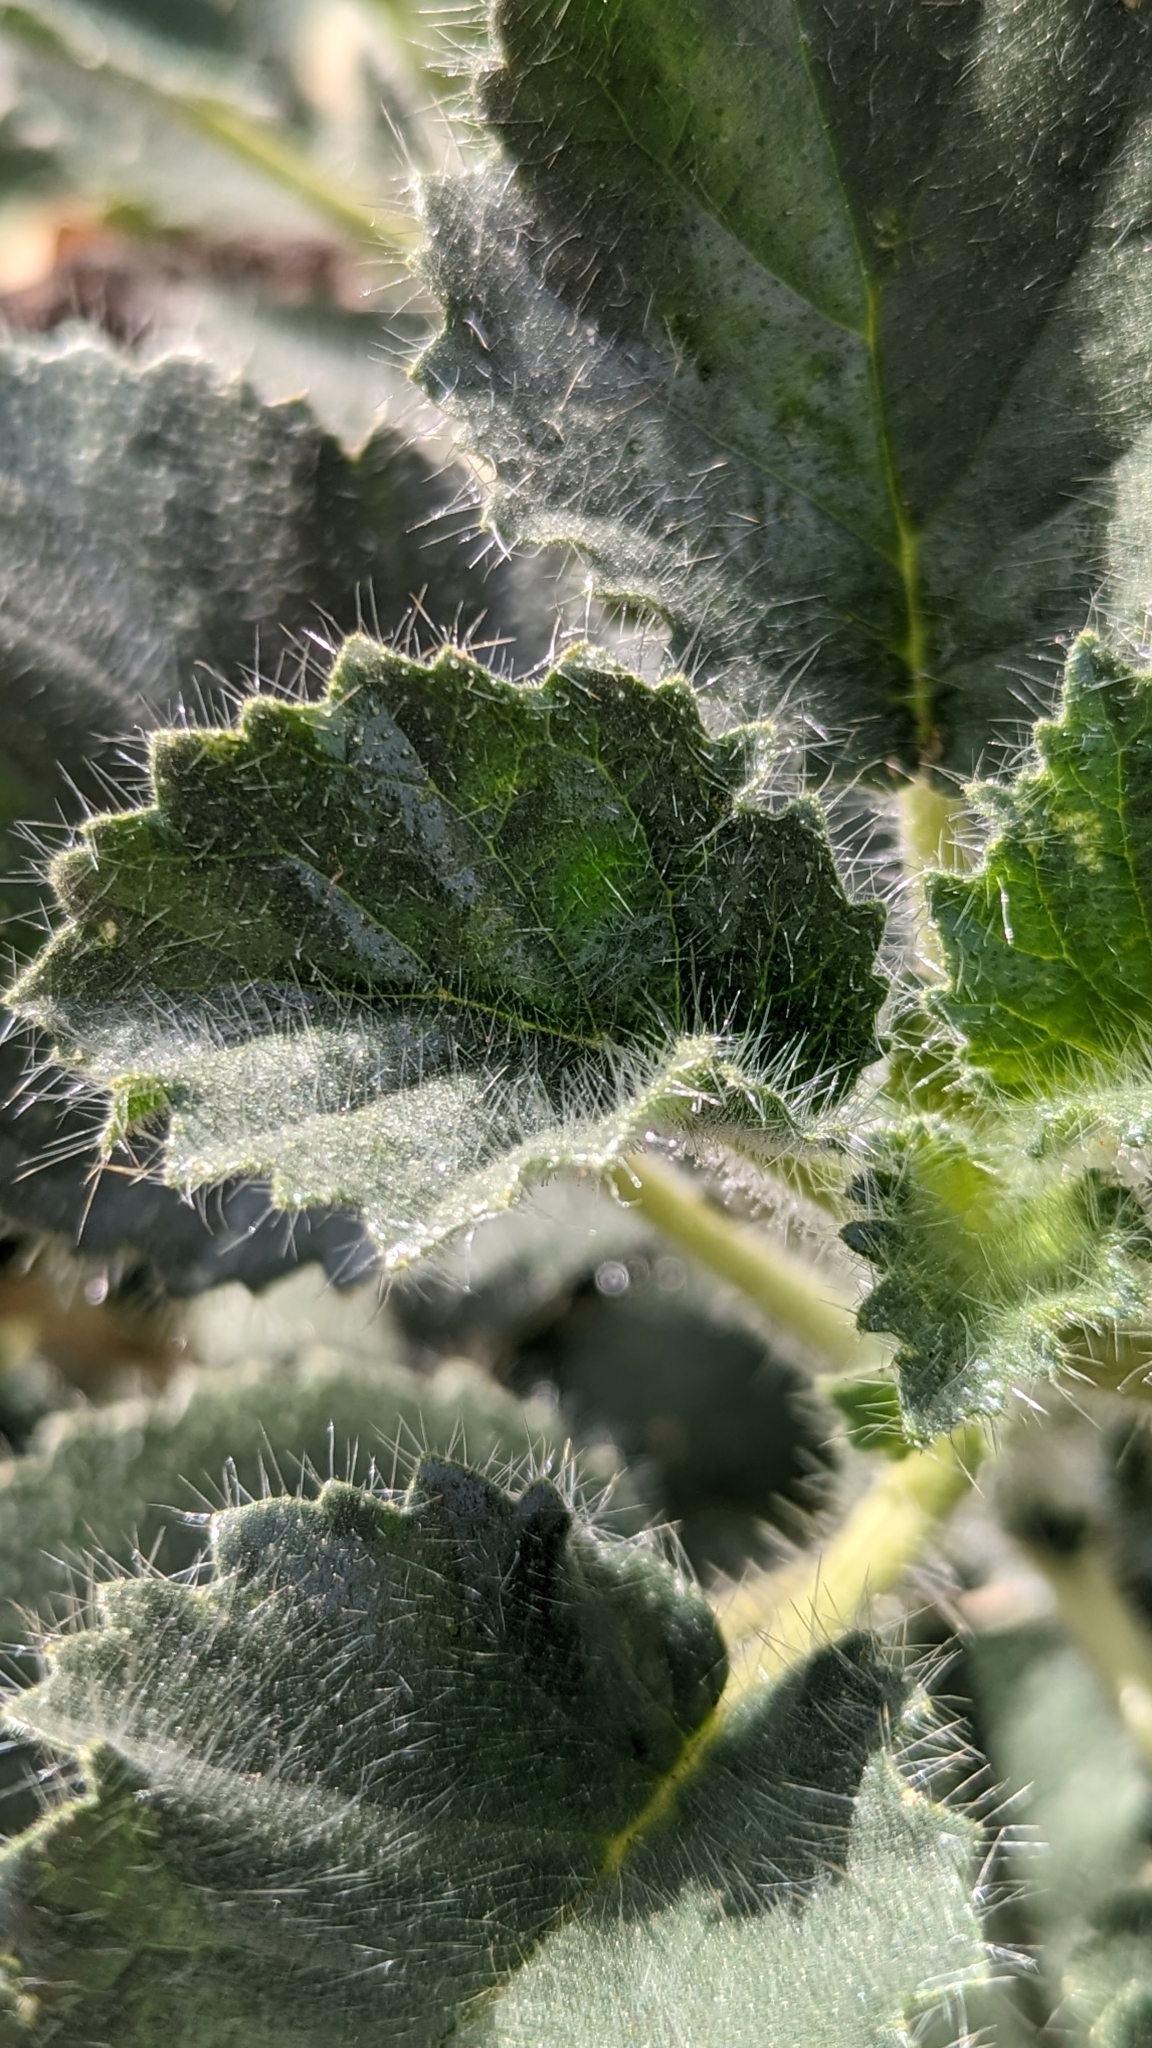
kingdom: Plantae
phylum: Tracheophyta
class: Magnoliopsida
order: Cornales
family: Loasaceae
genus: Eucnide
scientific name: Eucnide urens
